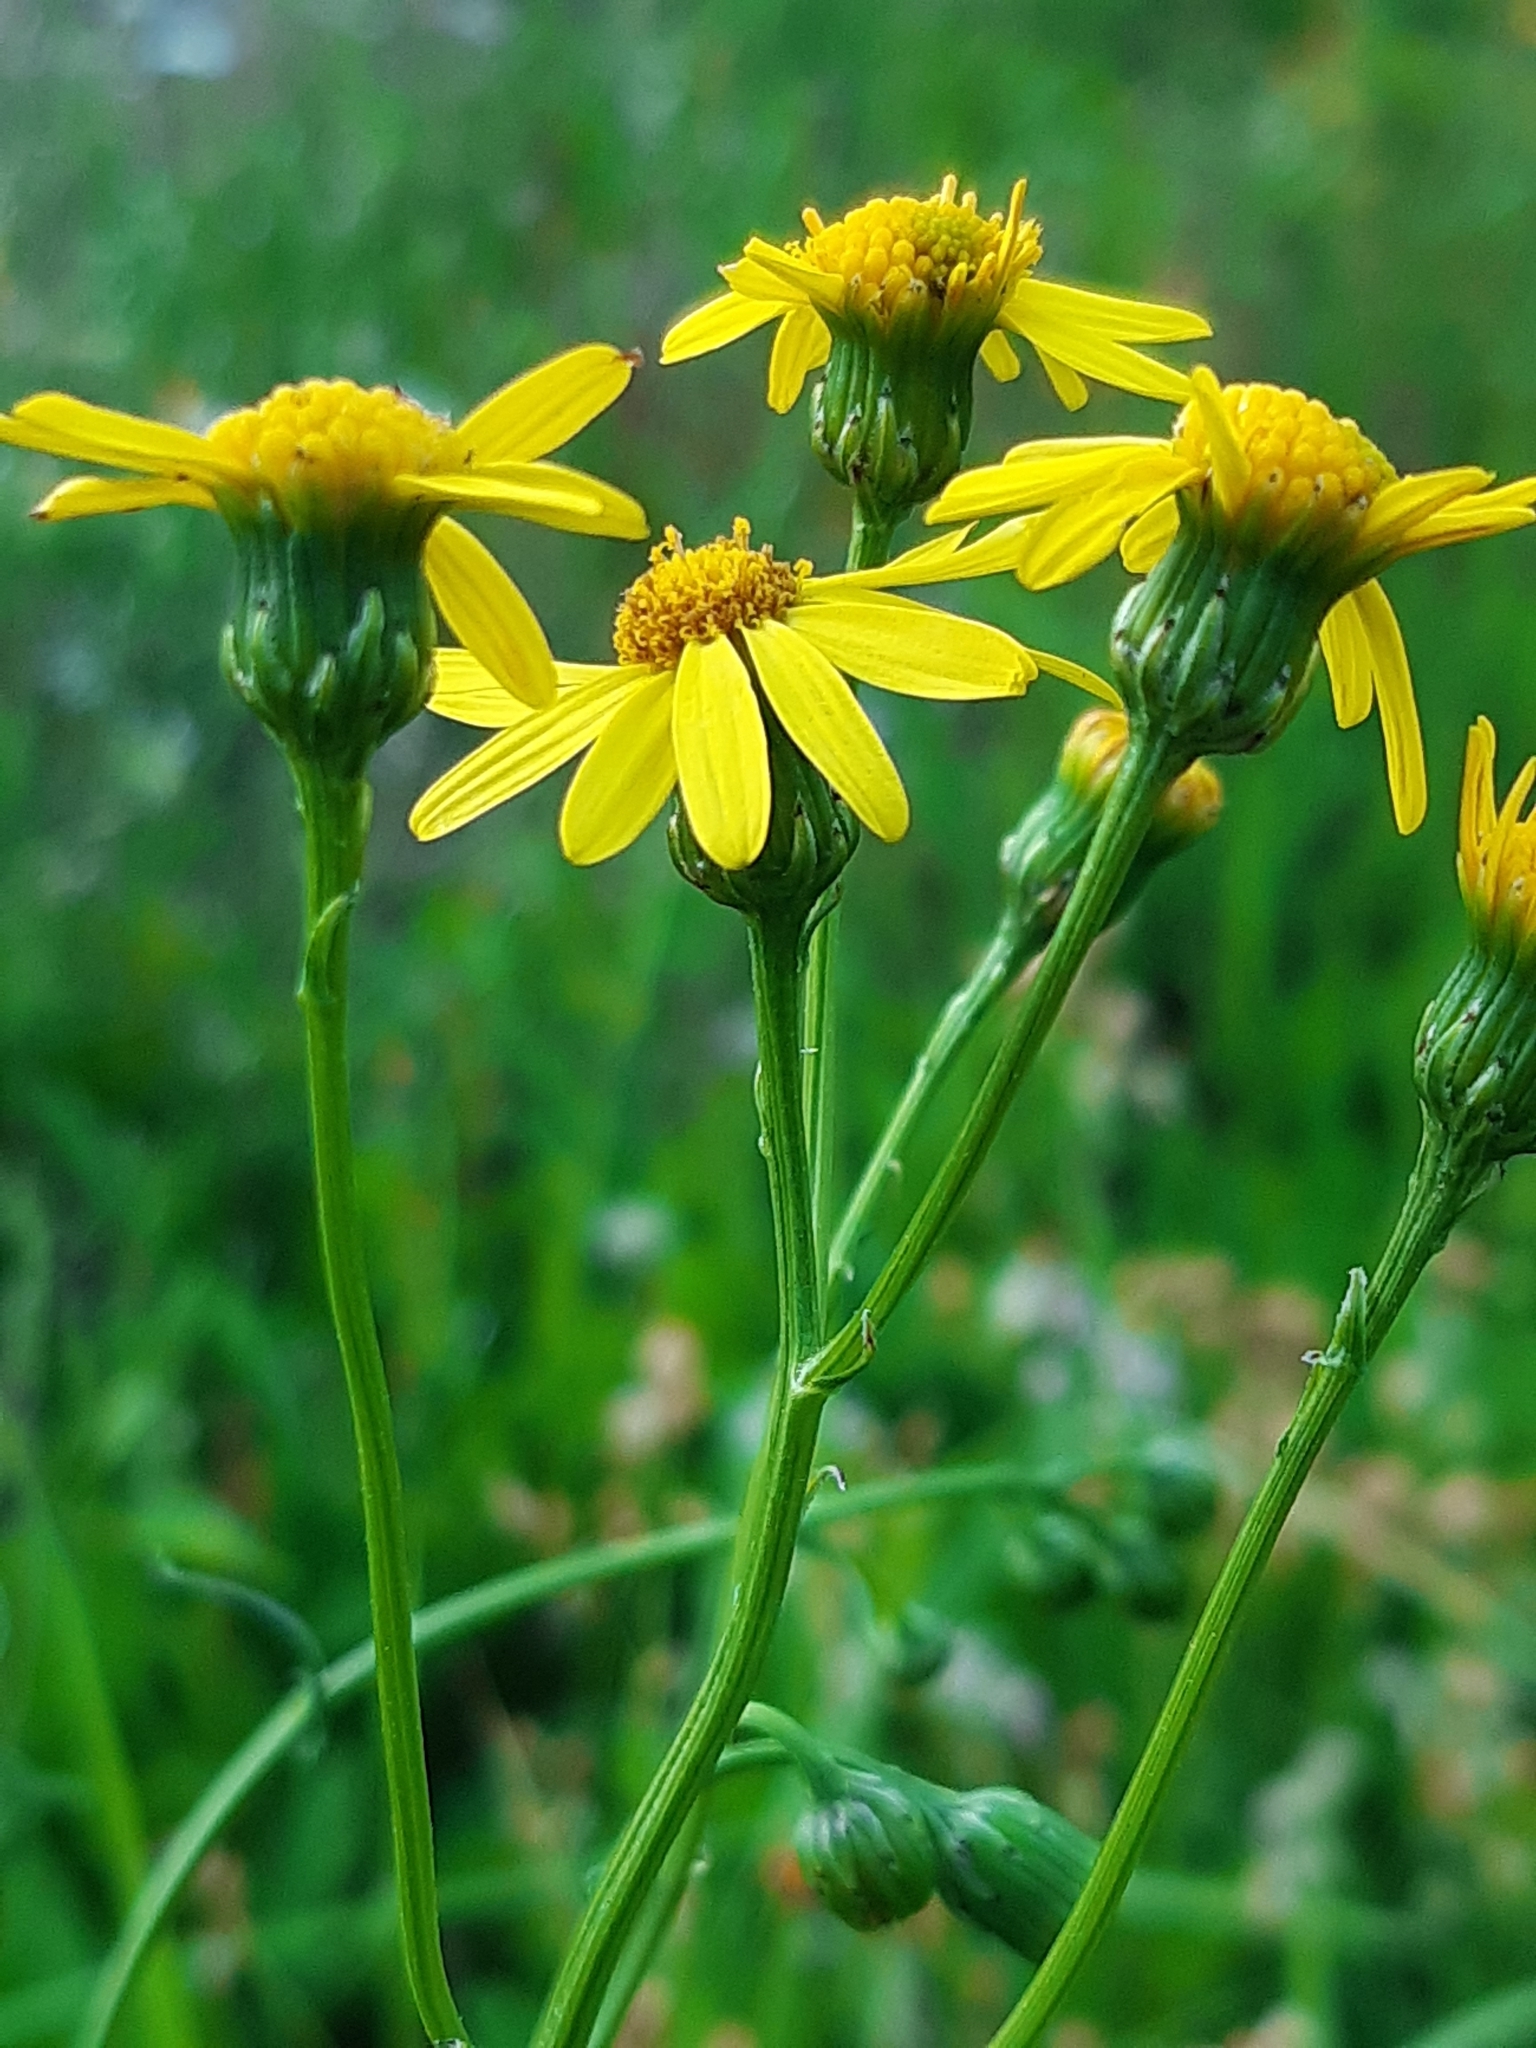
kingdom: Plantae
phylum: Tracheophyta
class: Magnoliopsida
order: Asterales
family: Asteraceae
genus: Senecio
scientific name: Senecio inaequidens
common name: Narrow-leaved ragwort
